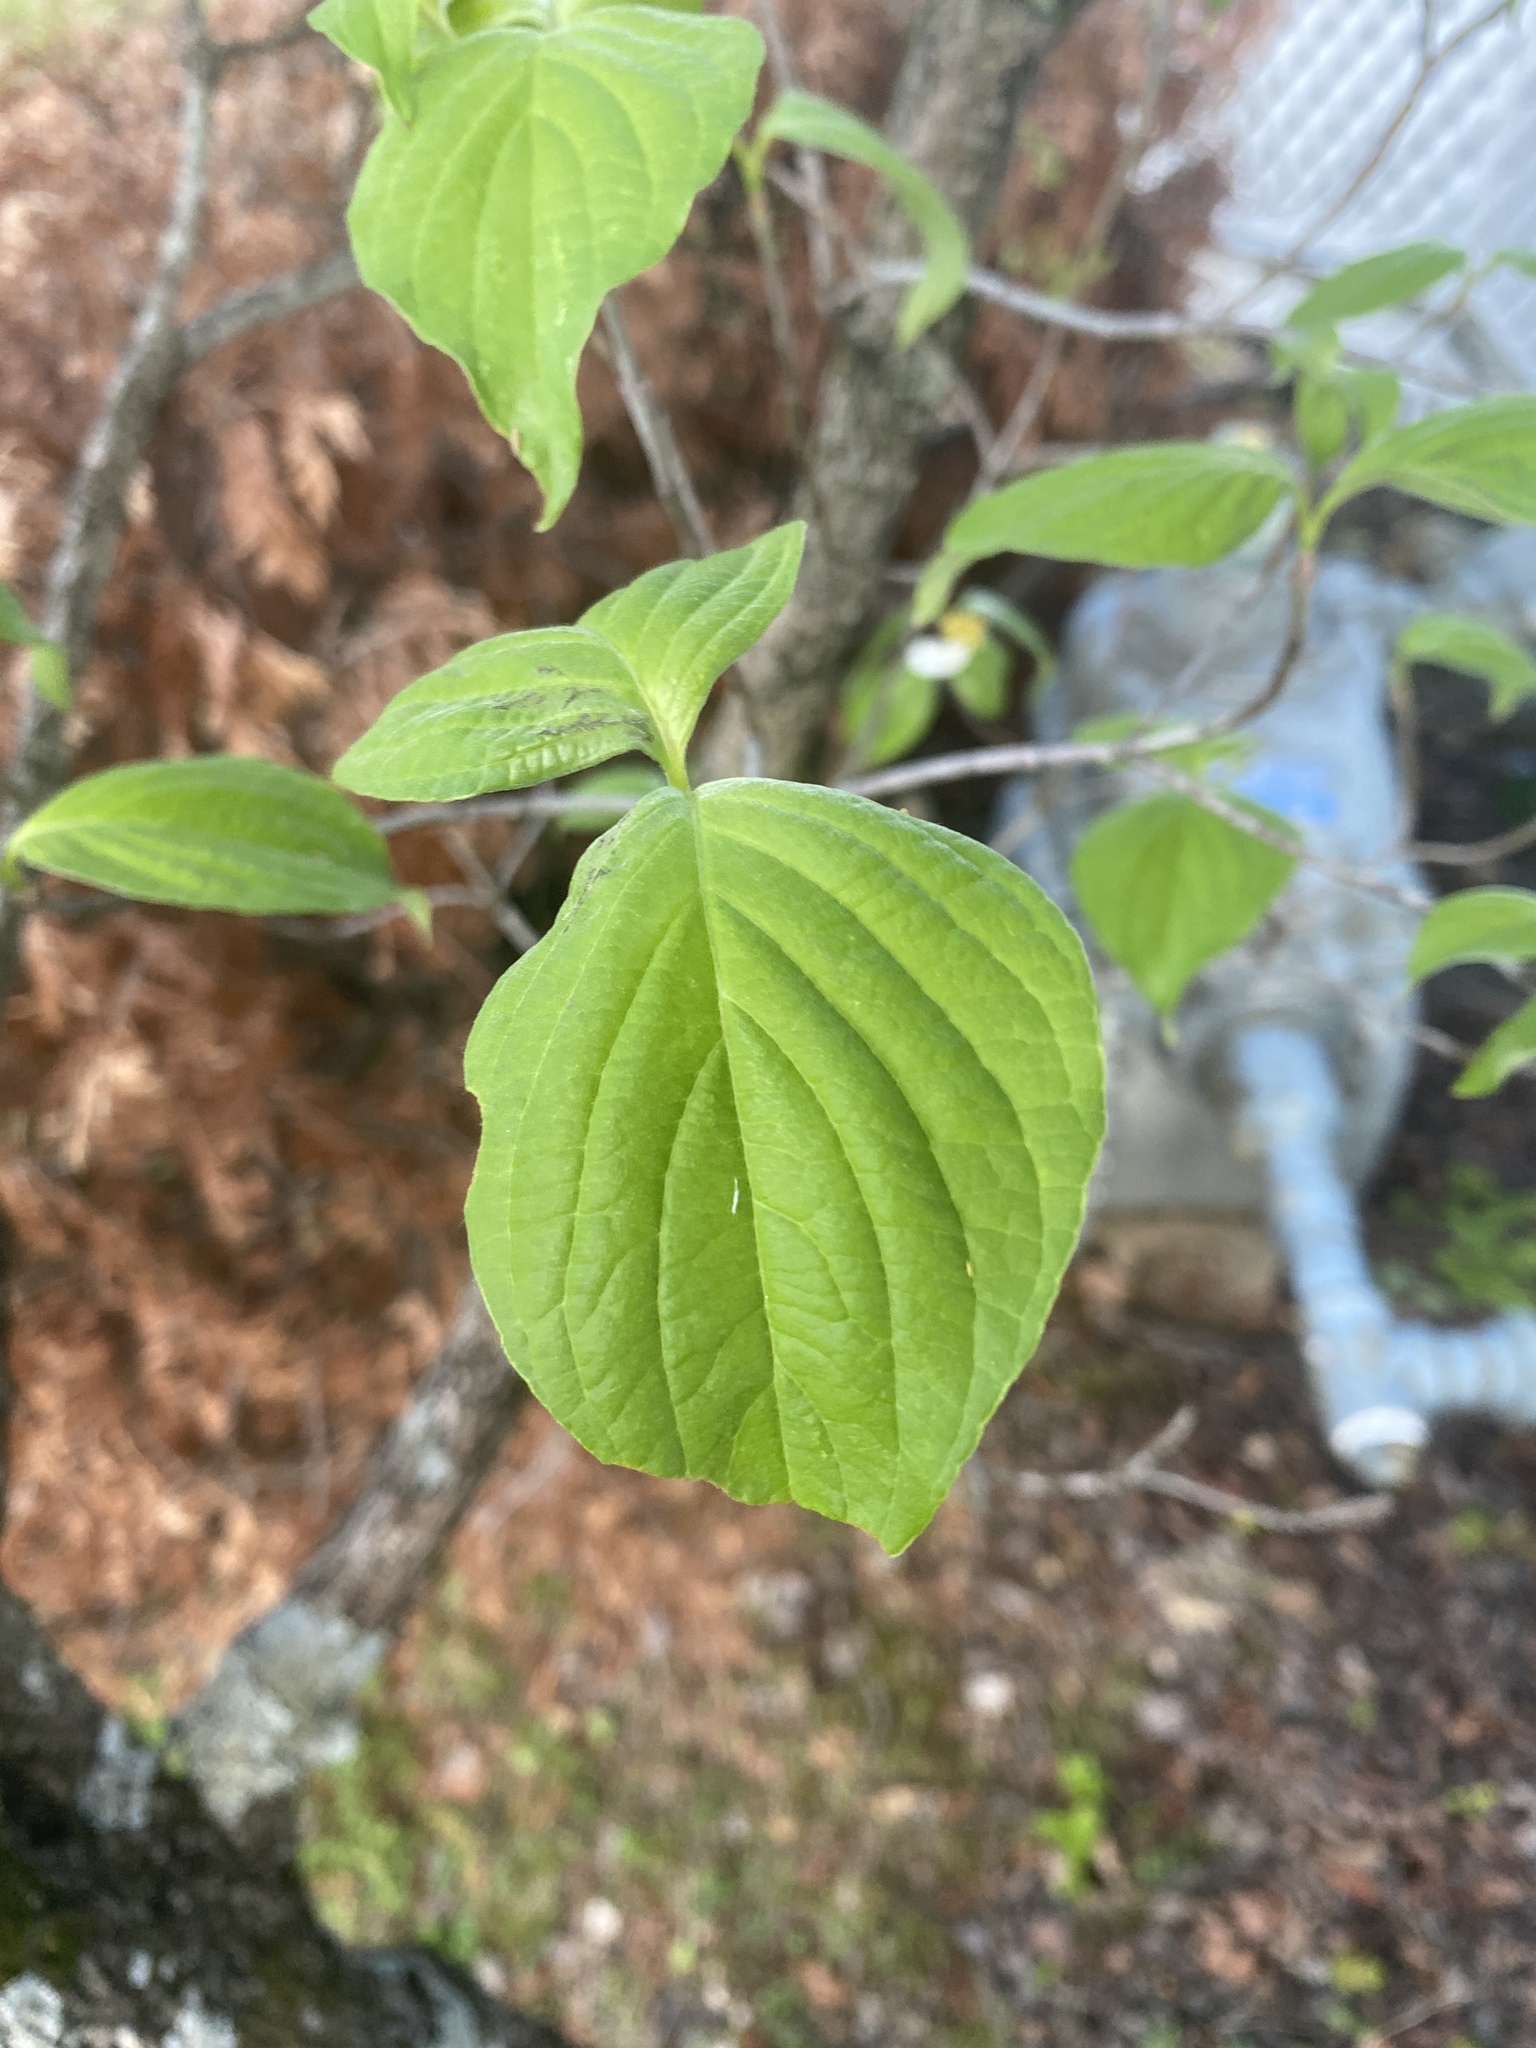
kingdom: Plantae
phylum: Tracheophyta
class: Magnoliopsida
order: Cornales
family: Cornaceae
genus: Cornus
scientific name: Cornus florida
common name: Flowering dogwood
